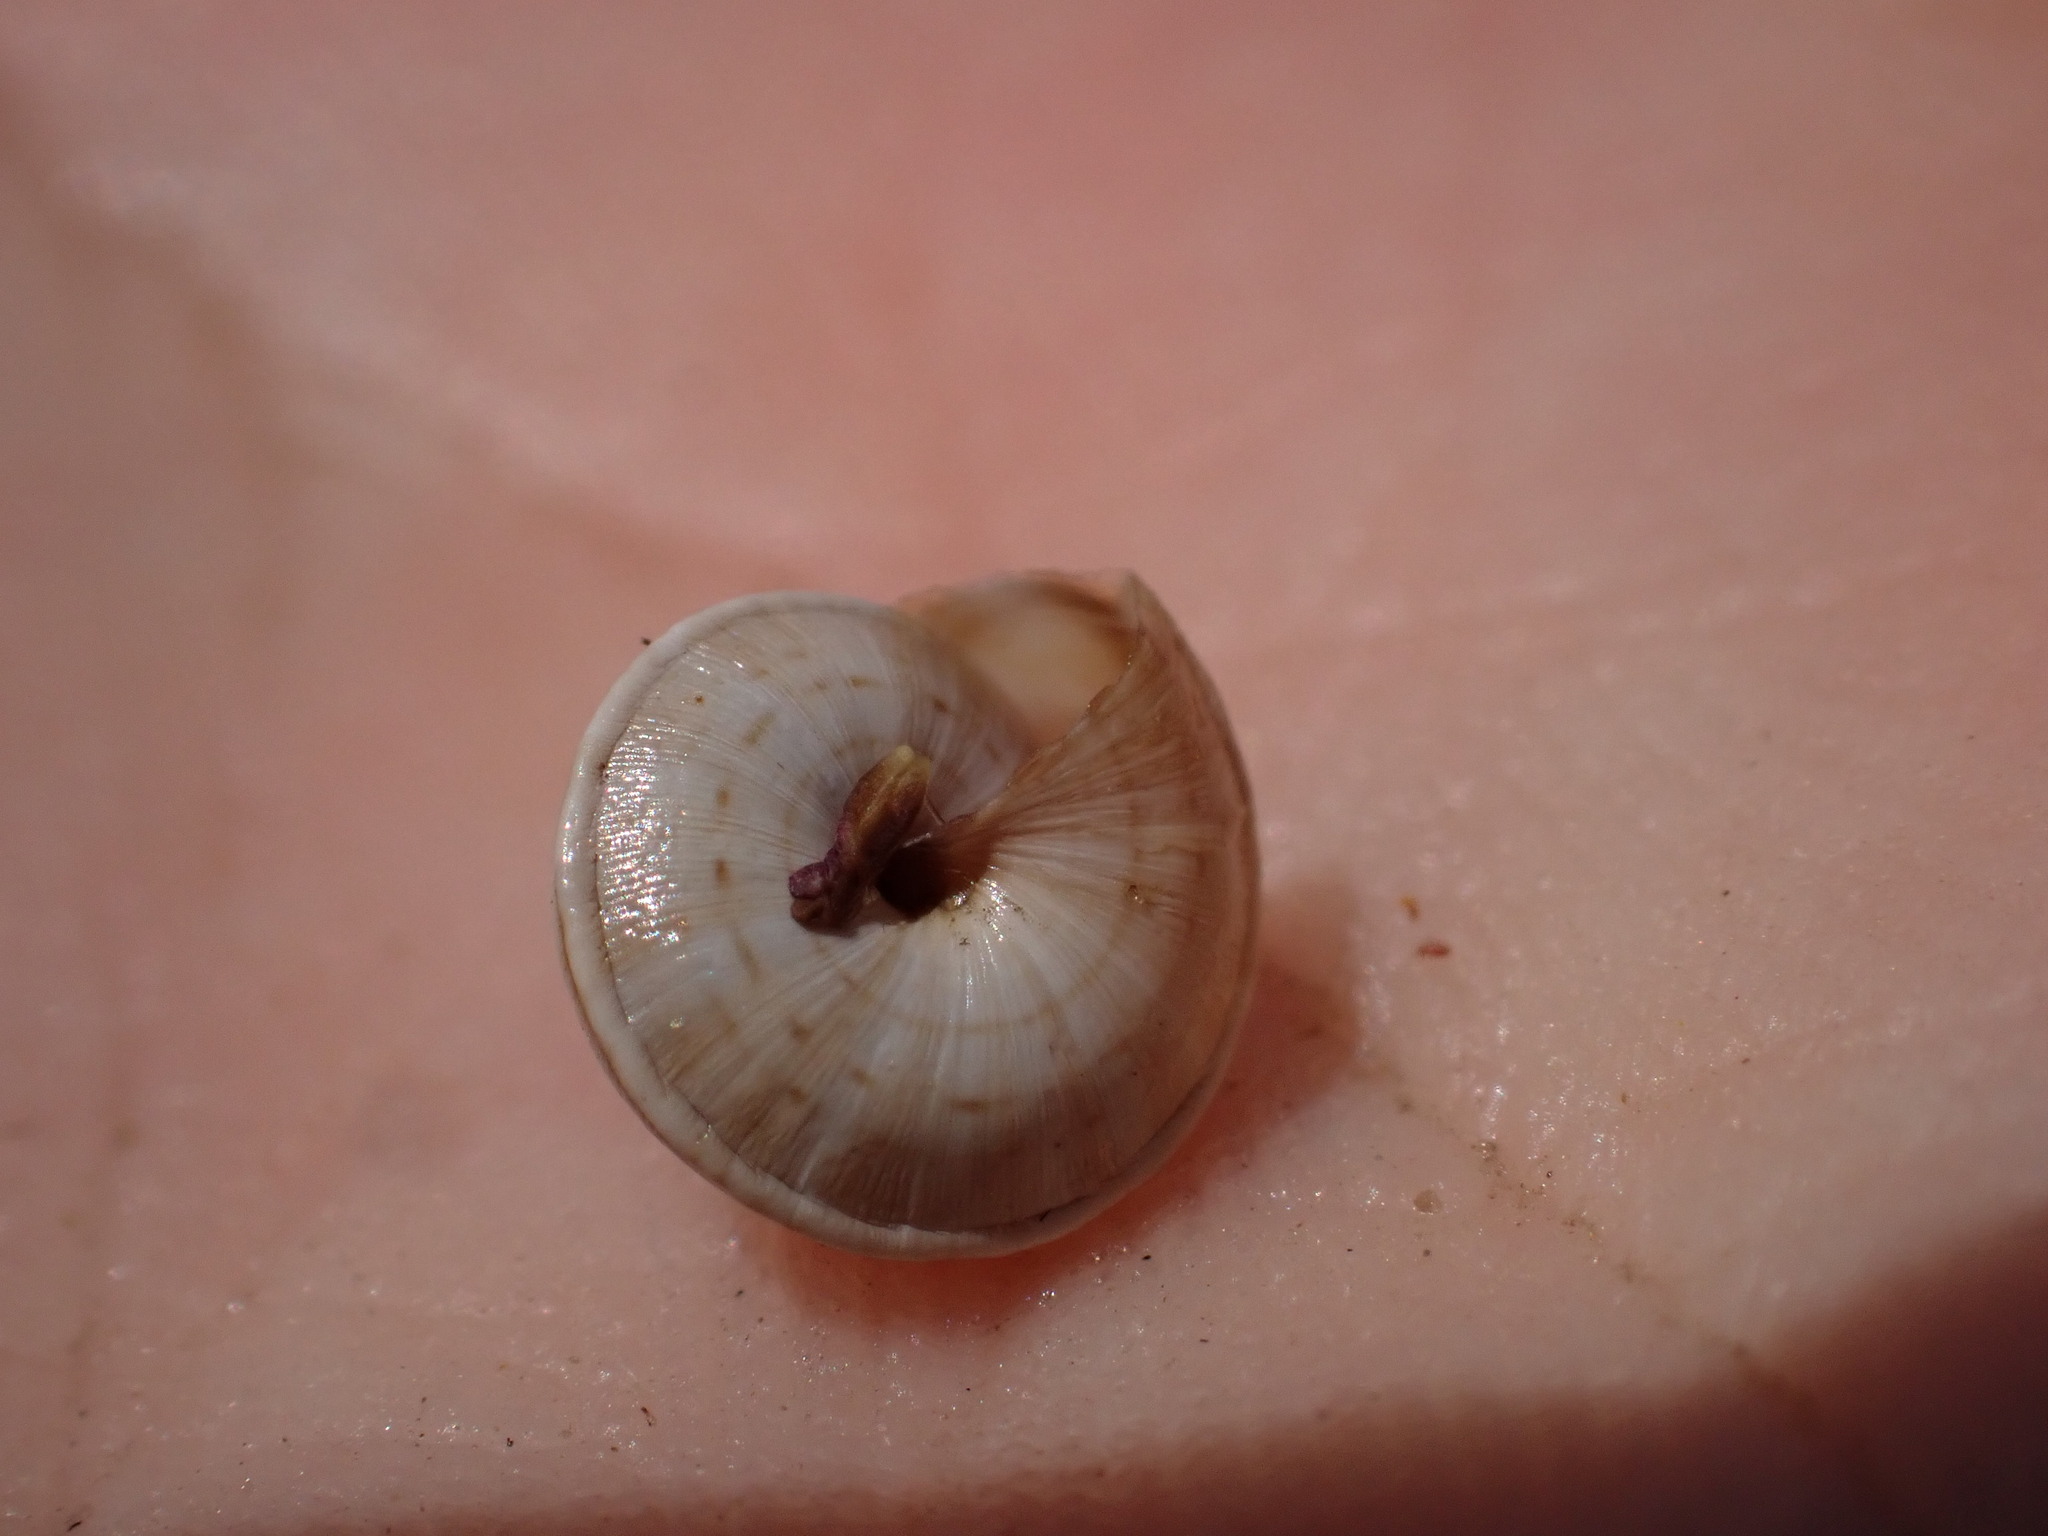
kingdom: Animalia
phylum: Mollusca
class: Gastropoda
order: Stylommatophora
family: Geomitridae
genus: Trochoidea
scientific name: Trochoidea trochoides
